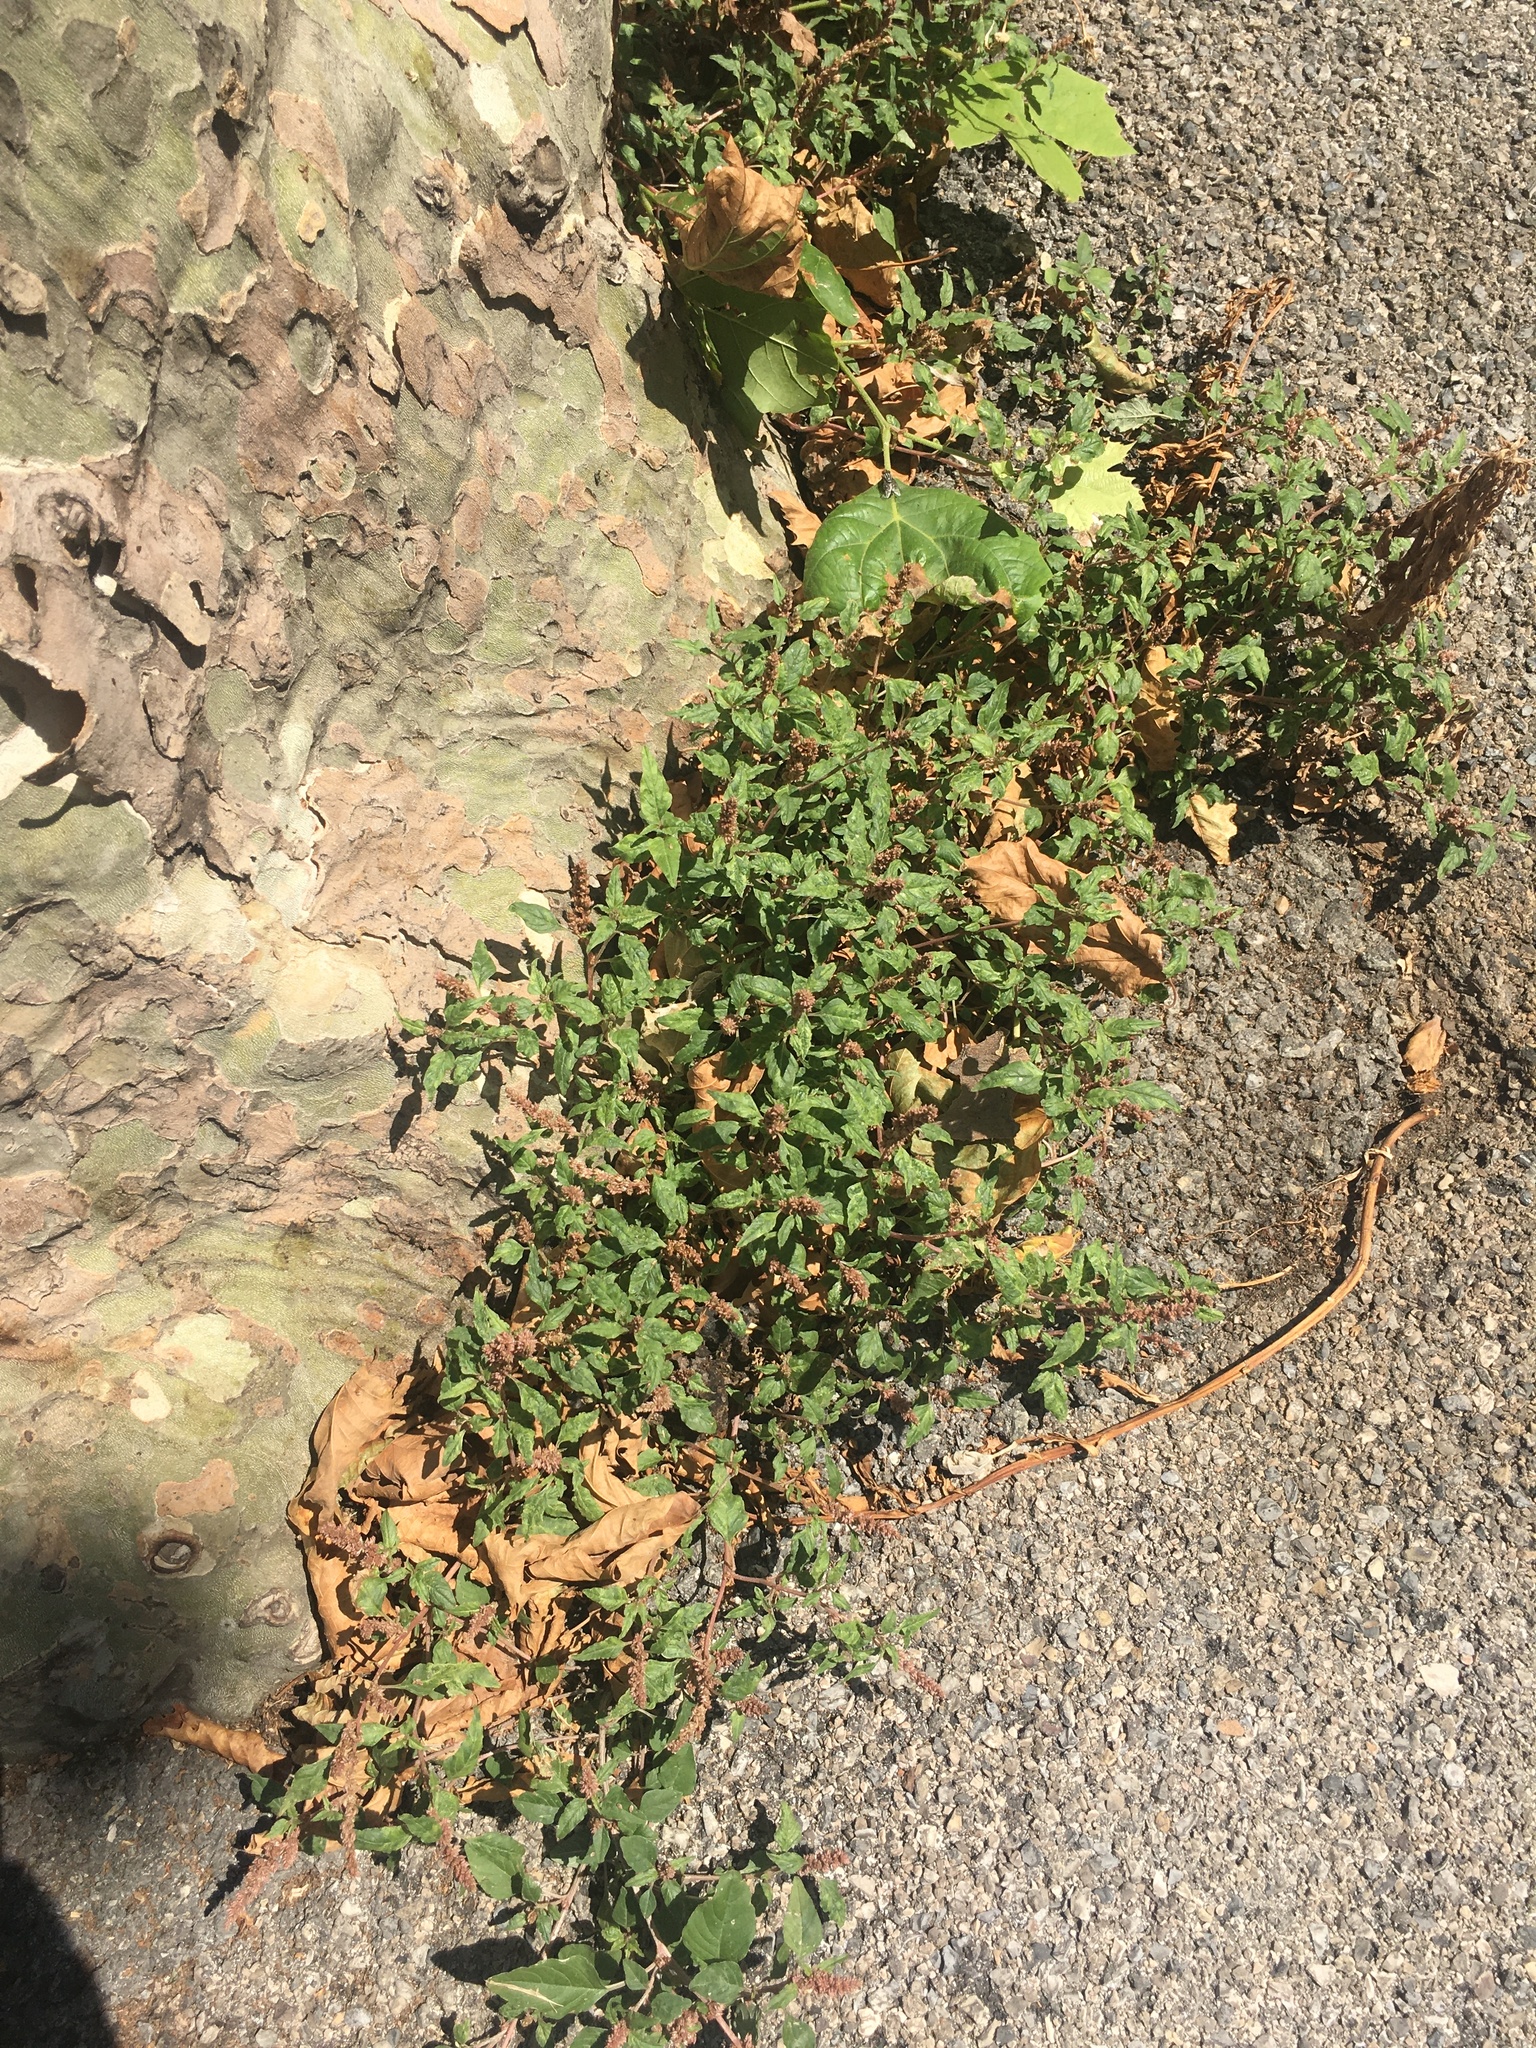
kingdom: Plantae
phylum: Tracheophyta
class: Magnoliopsida
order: Rosales
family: Urticaceae
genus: Parietaria
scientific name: Parietaria judaica
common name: Pellitory-of-the-wall
